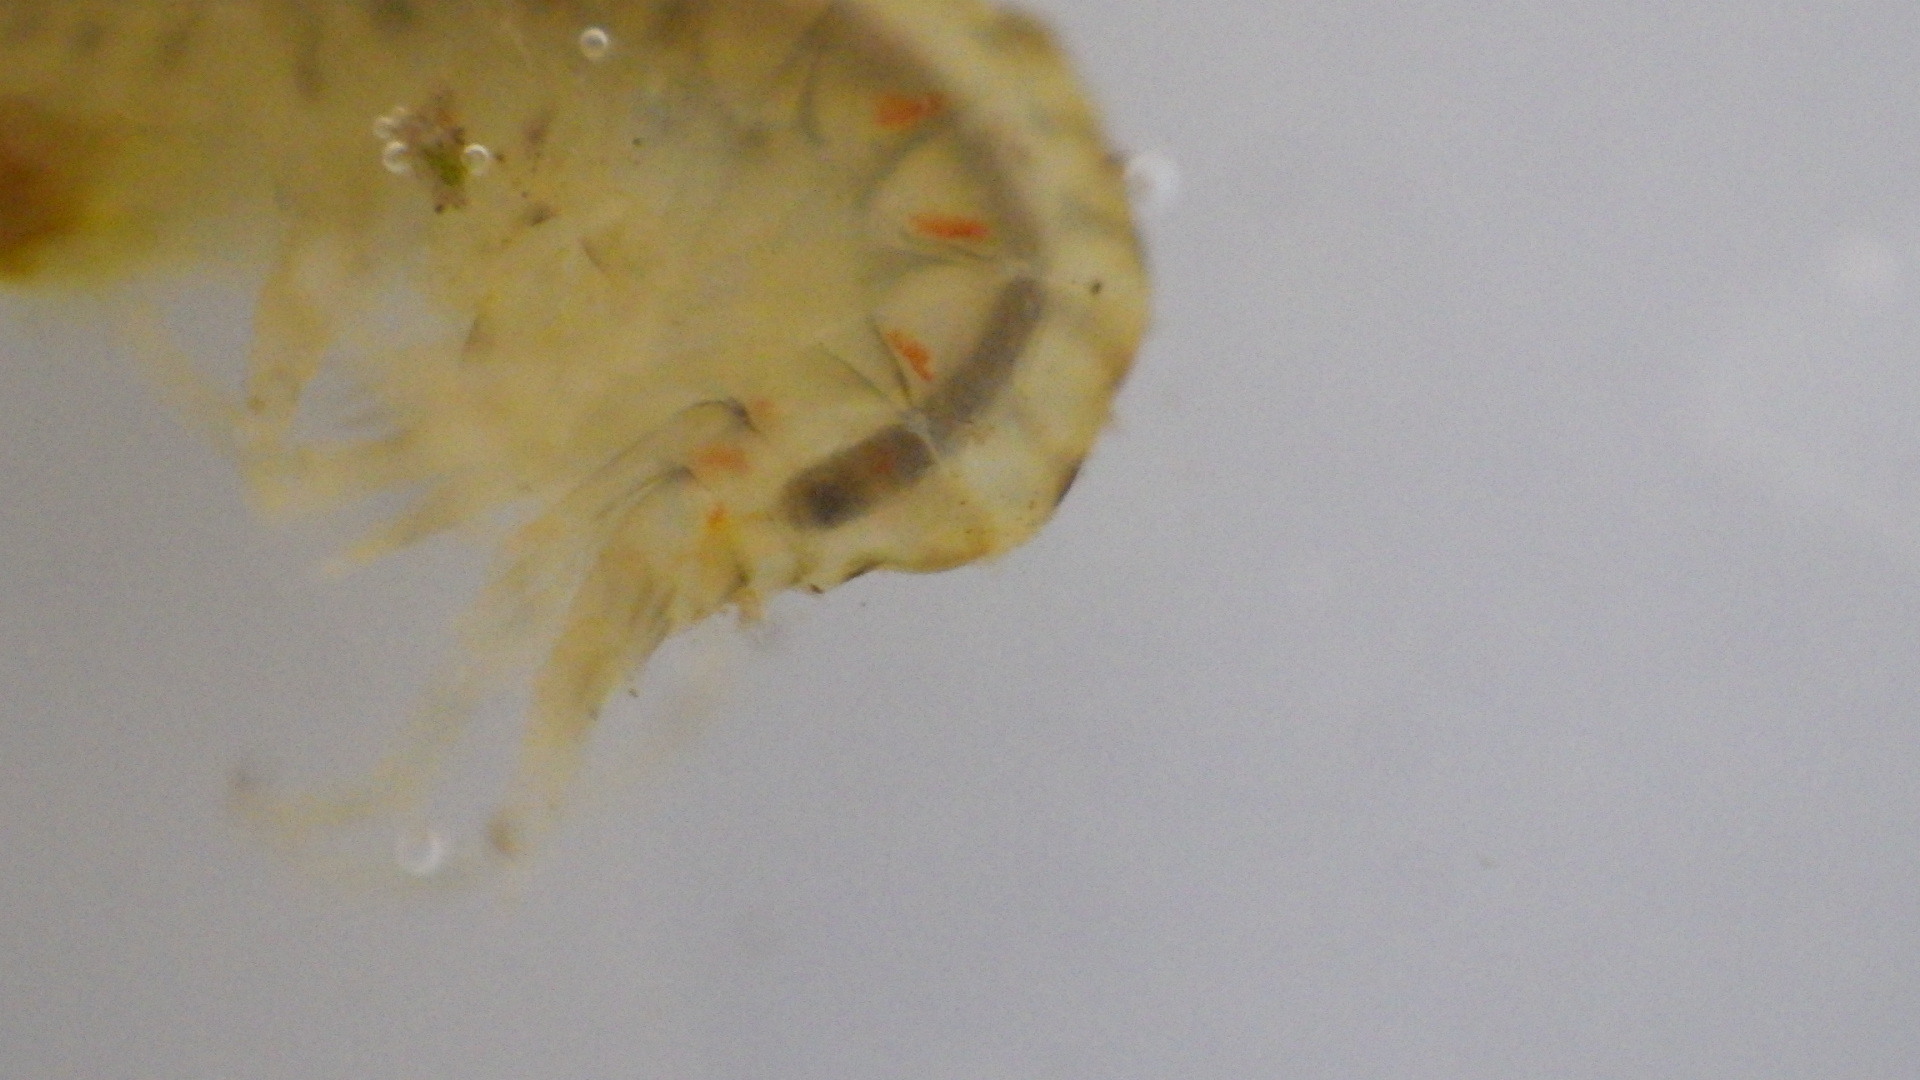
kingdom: Animalia
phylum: Arthropoda
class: Malacostraca
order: Amphipoda
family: Gammaridae
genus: Gammarus
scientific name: Gammarus fasciatus
